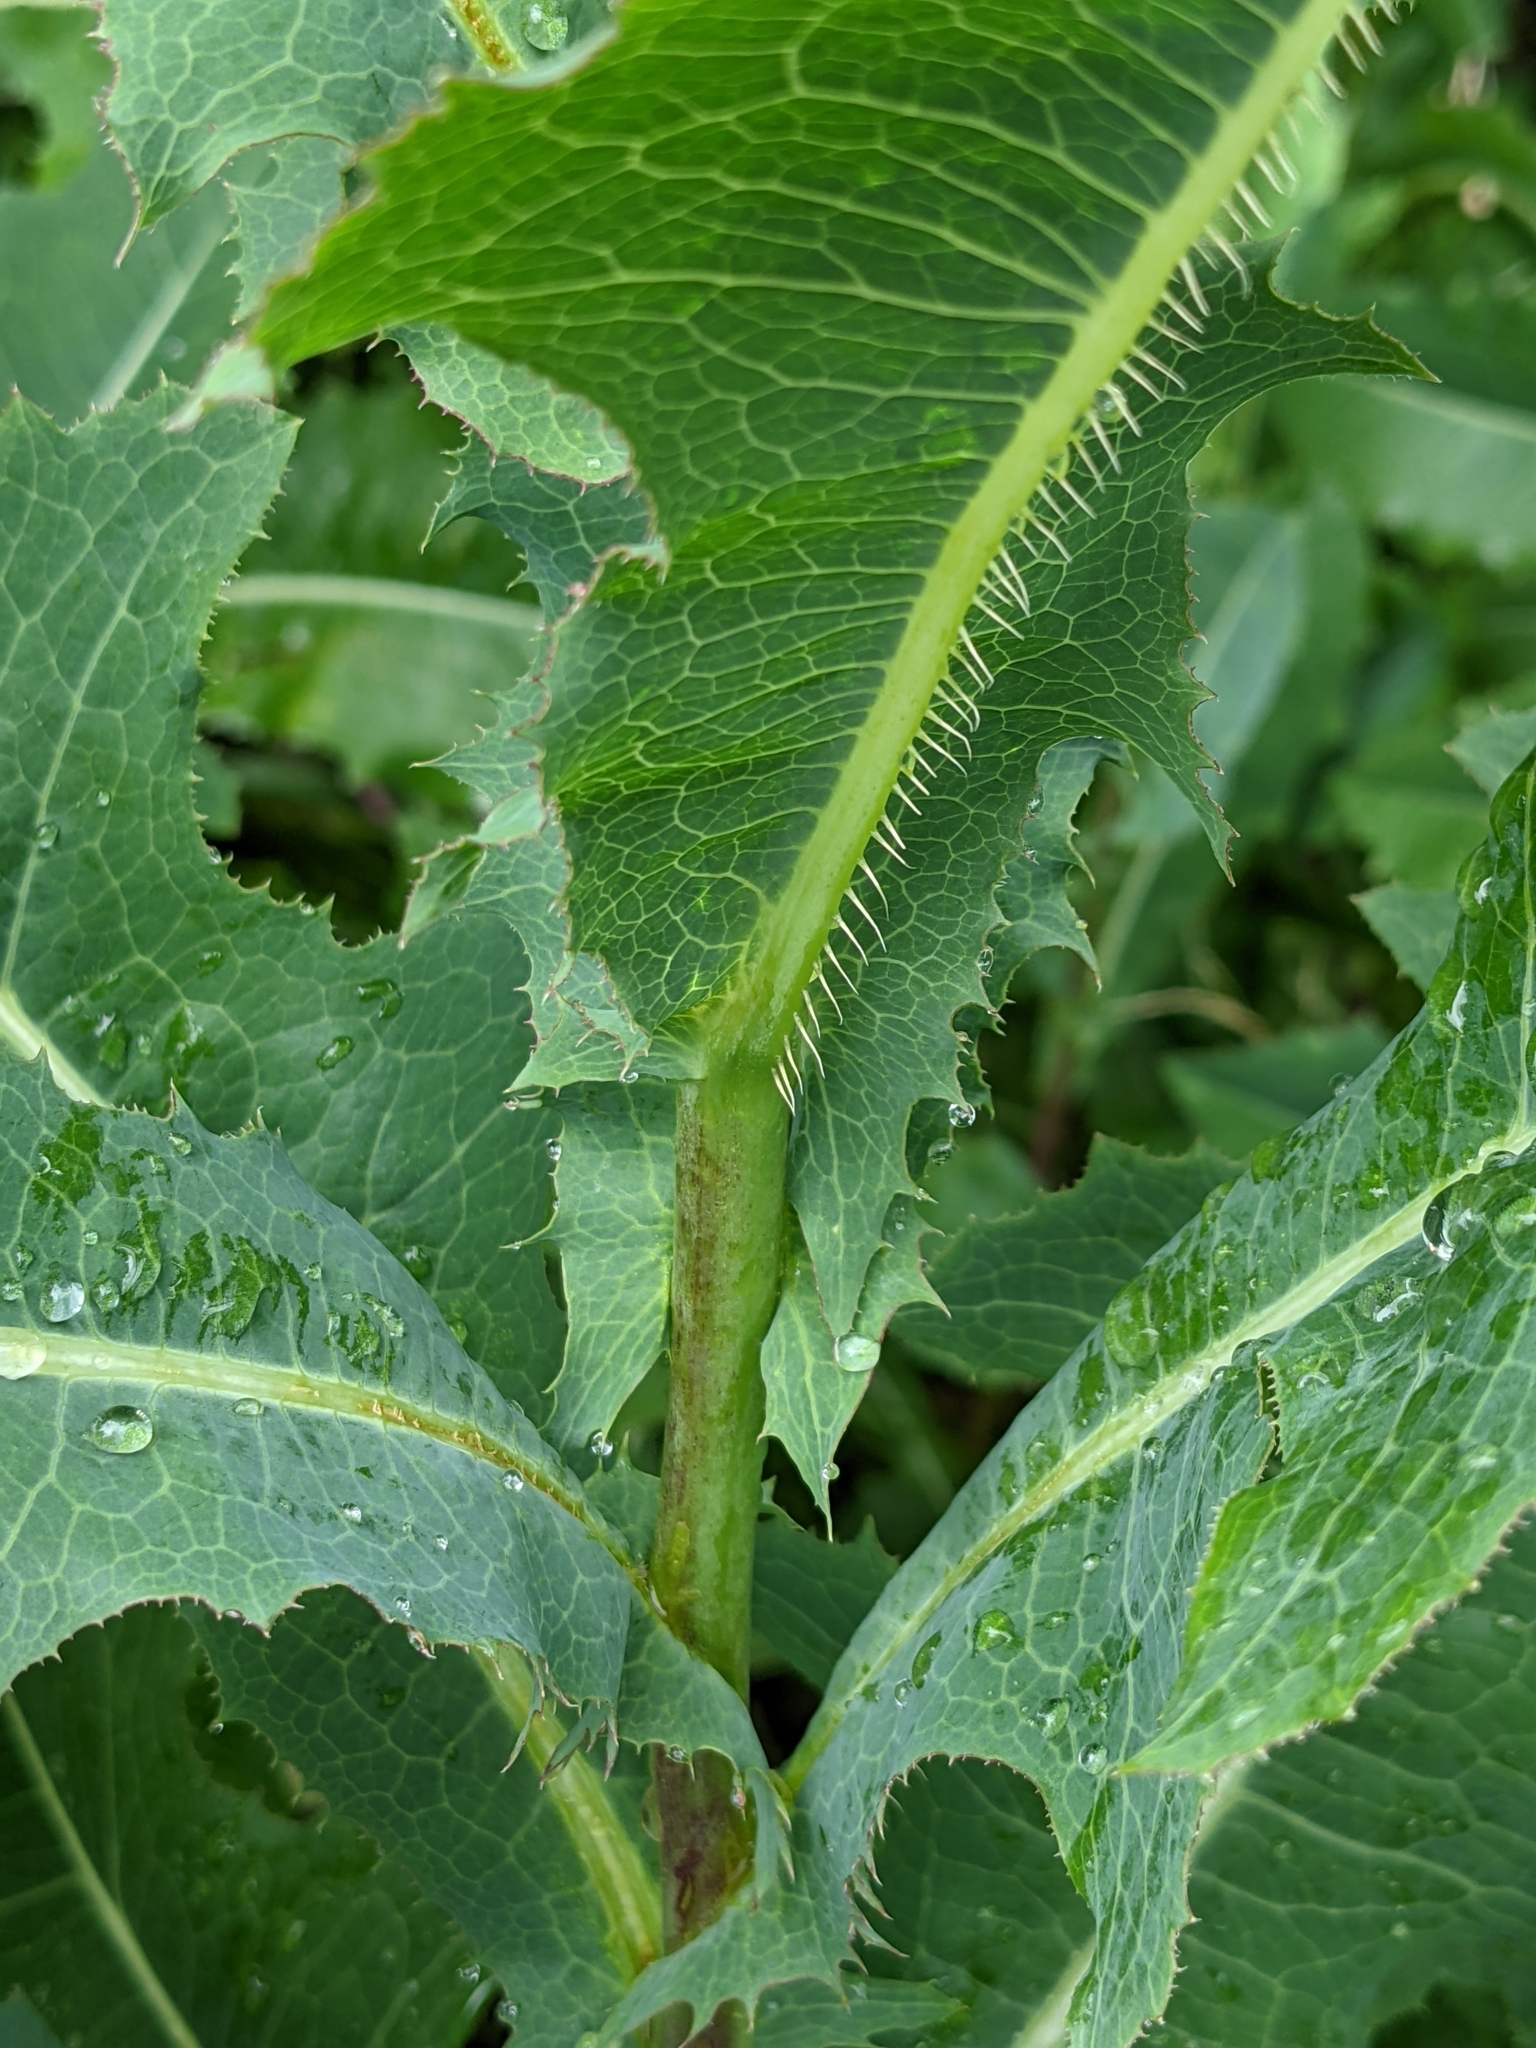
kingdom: Plantae
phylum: Tracheophyta
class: Magnoliopsida
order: Asterales
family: Asteraceae
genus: Lactuca
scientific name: Lactuca serriola
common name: Prickly lettuce
